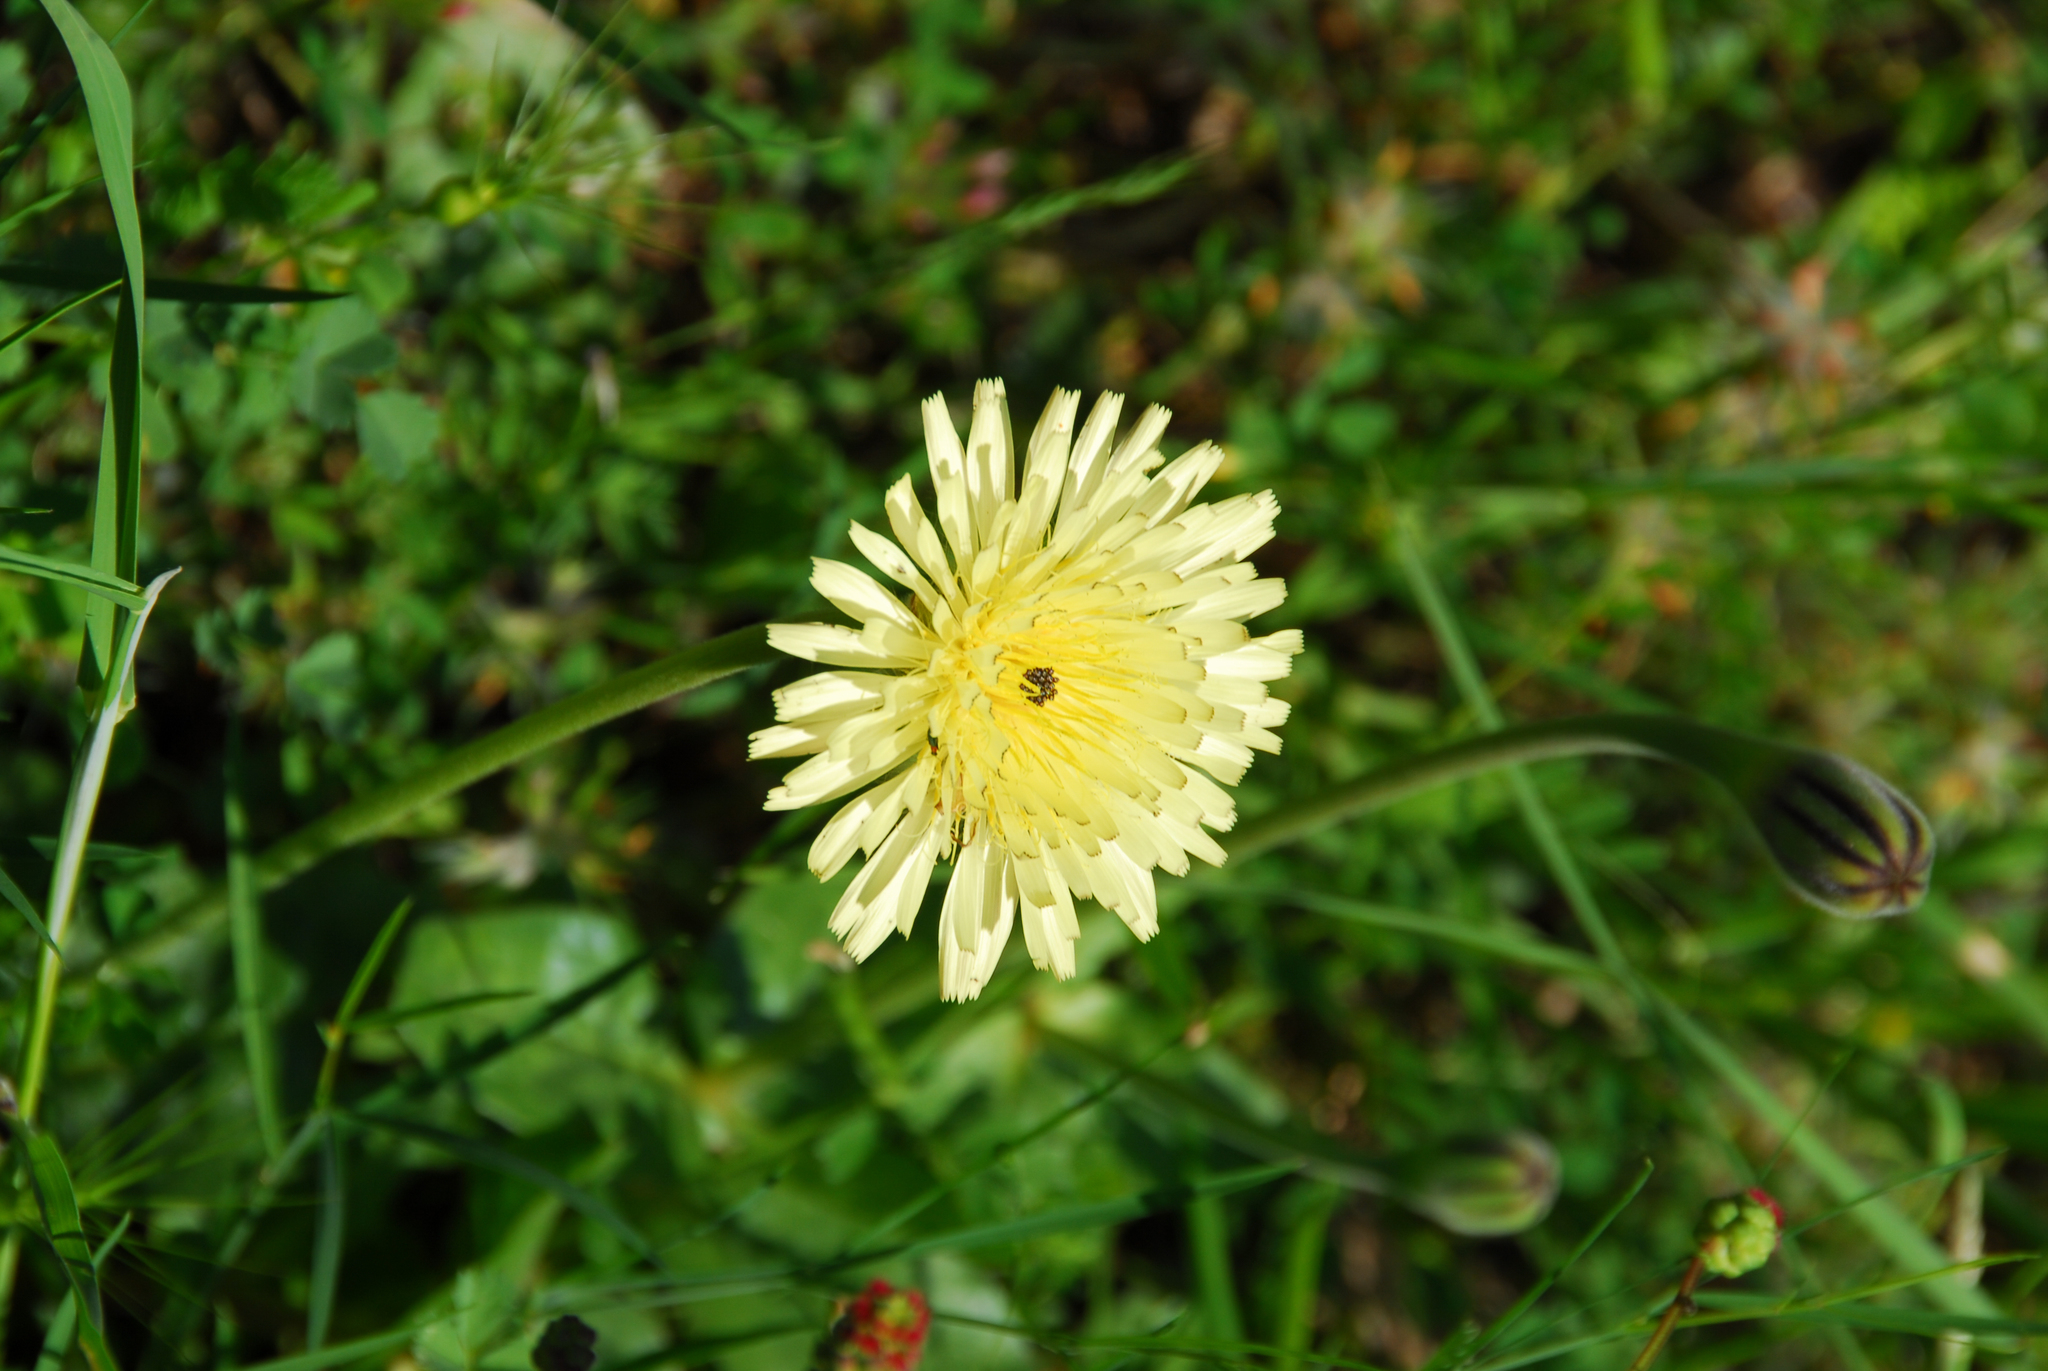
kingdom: Plantae
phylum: Tracheophyta
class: Magnoliopsida
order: Asterales
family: Asteraceae
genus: Urospermum
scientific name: Urospermum dalechampii
